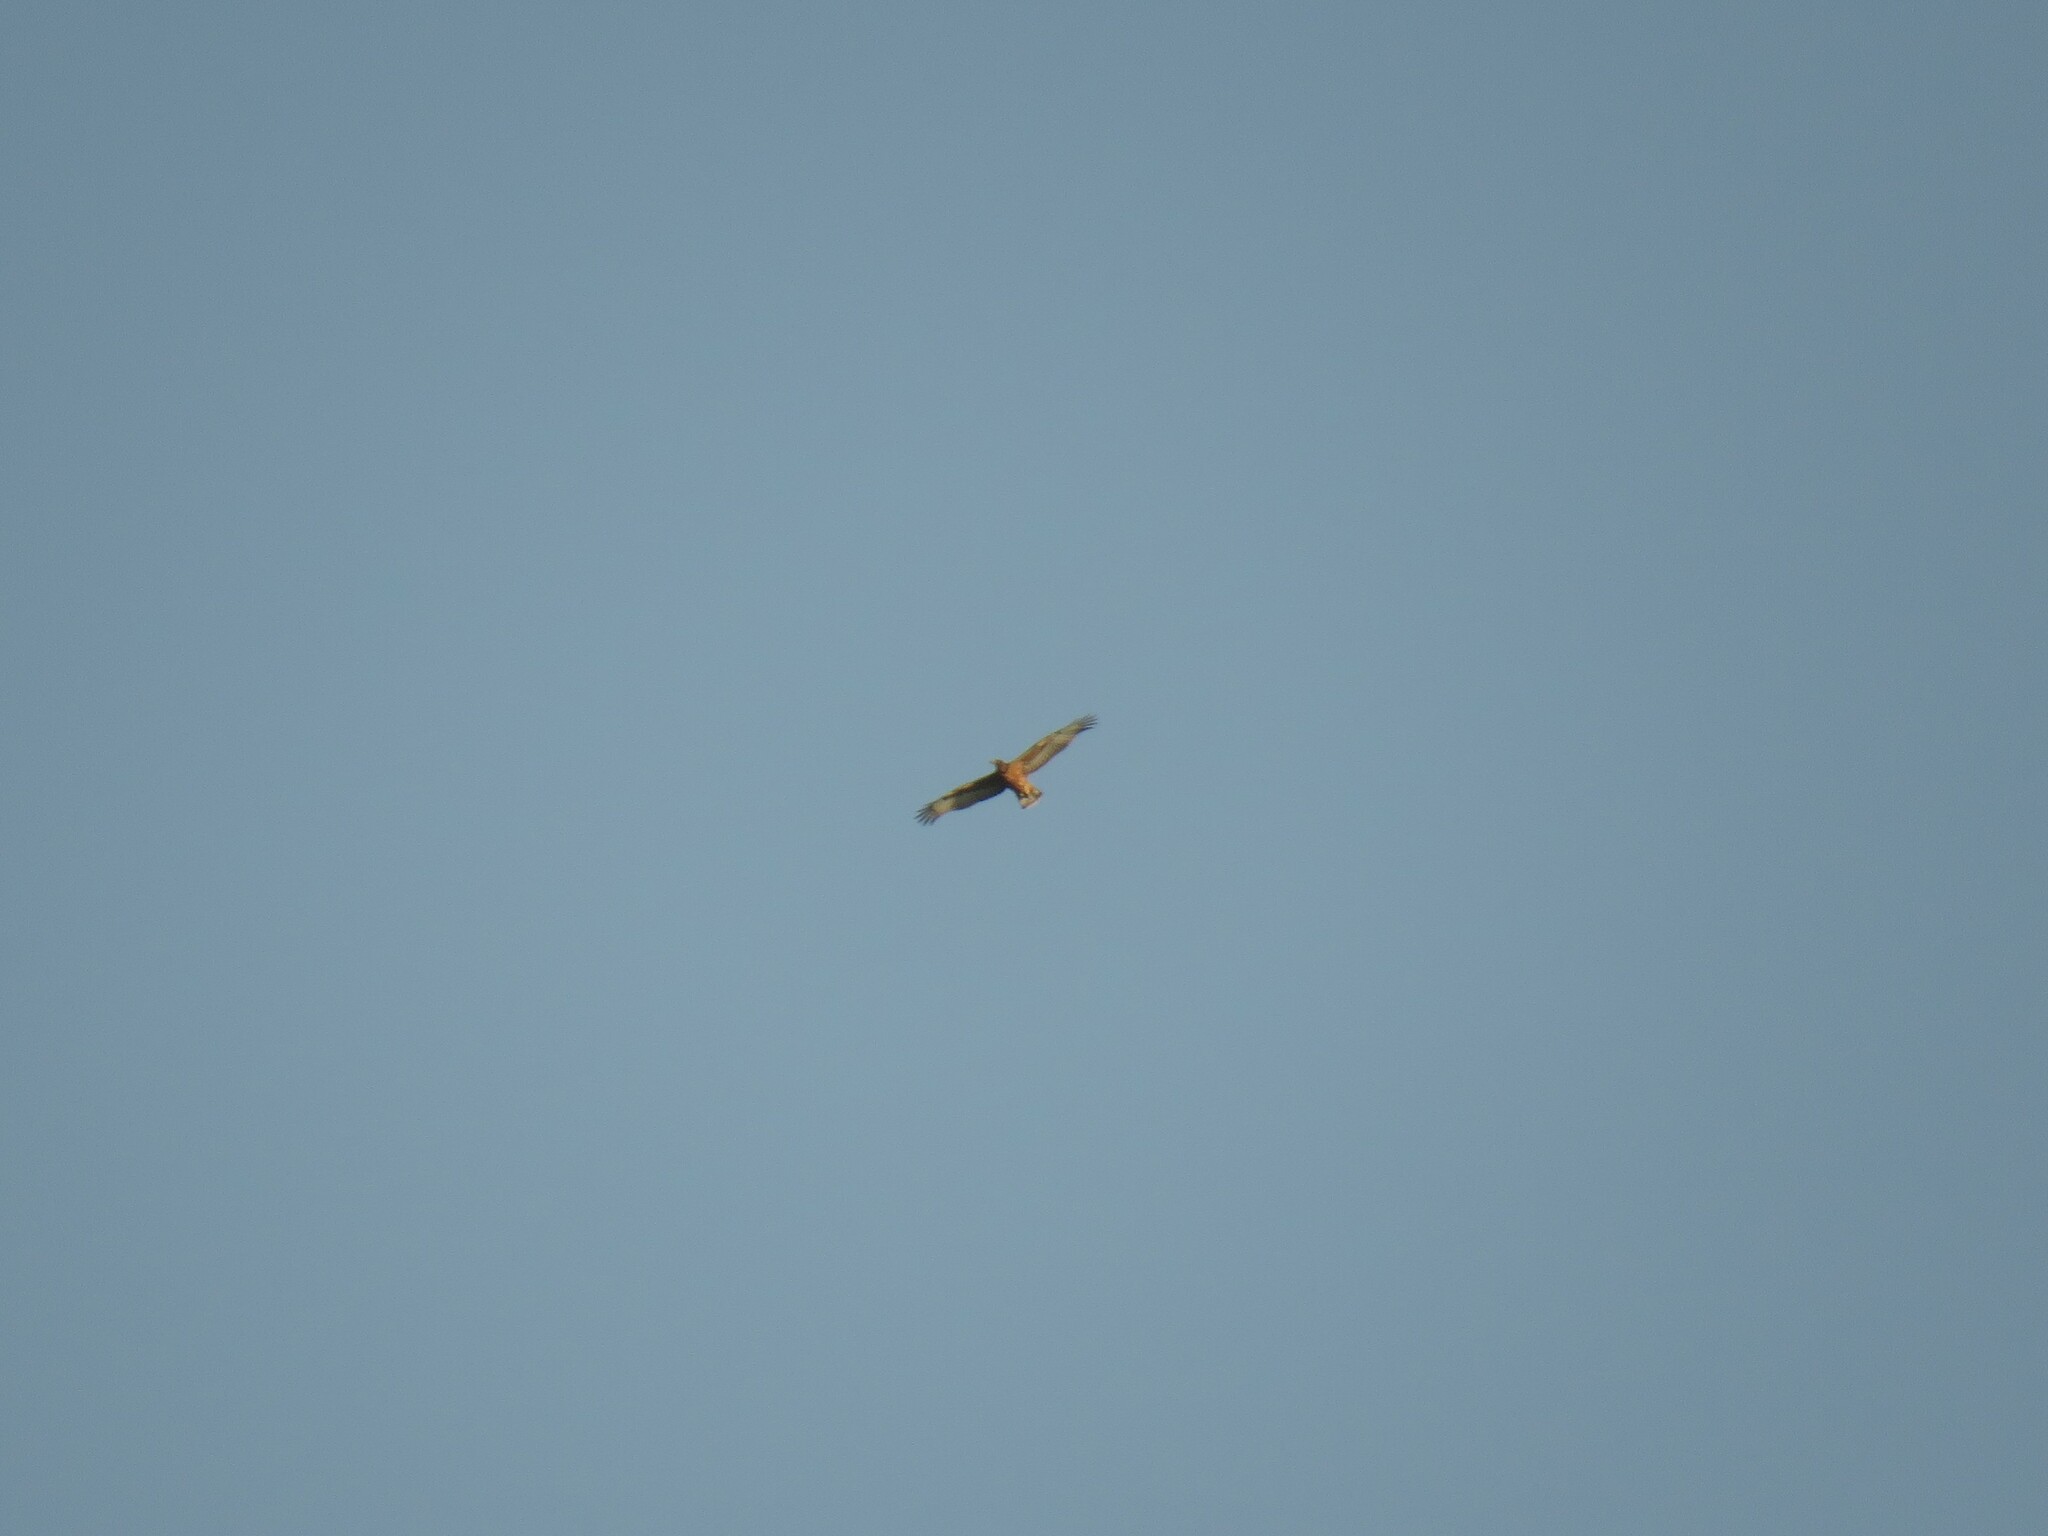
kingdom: Animalia
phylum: Chordata
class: Aves
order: Accipitriformes
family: Accipitridae
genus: Aquila
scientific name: Aquila spilogaster
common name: African hawk-eagle
